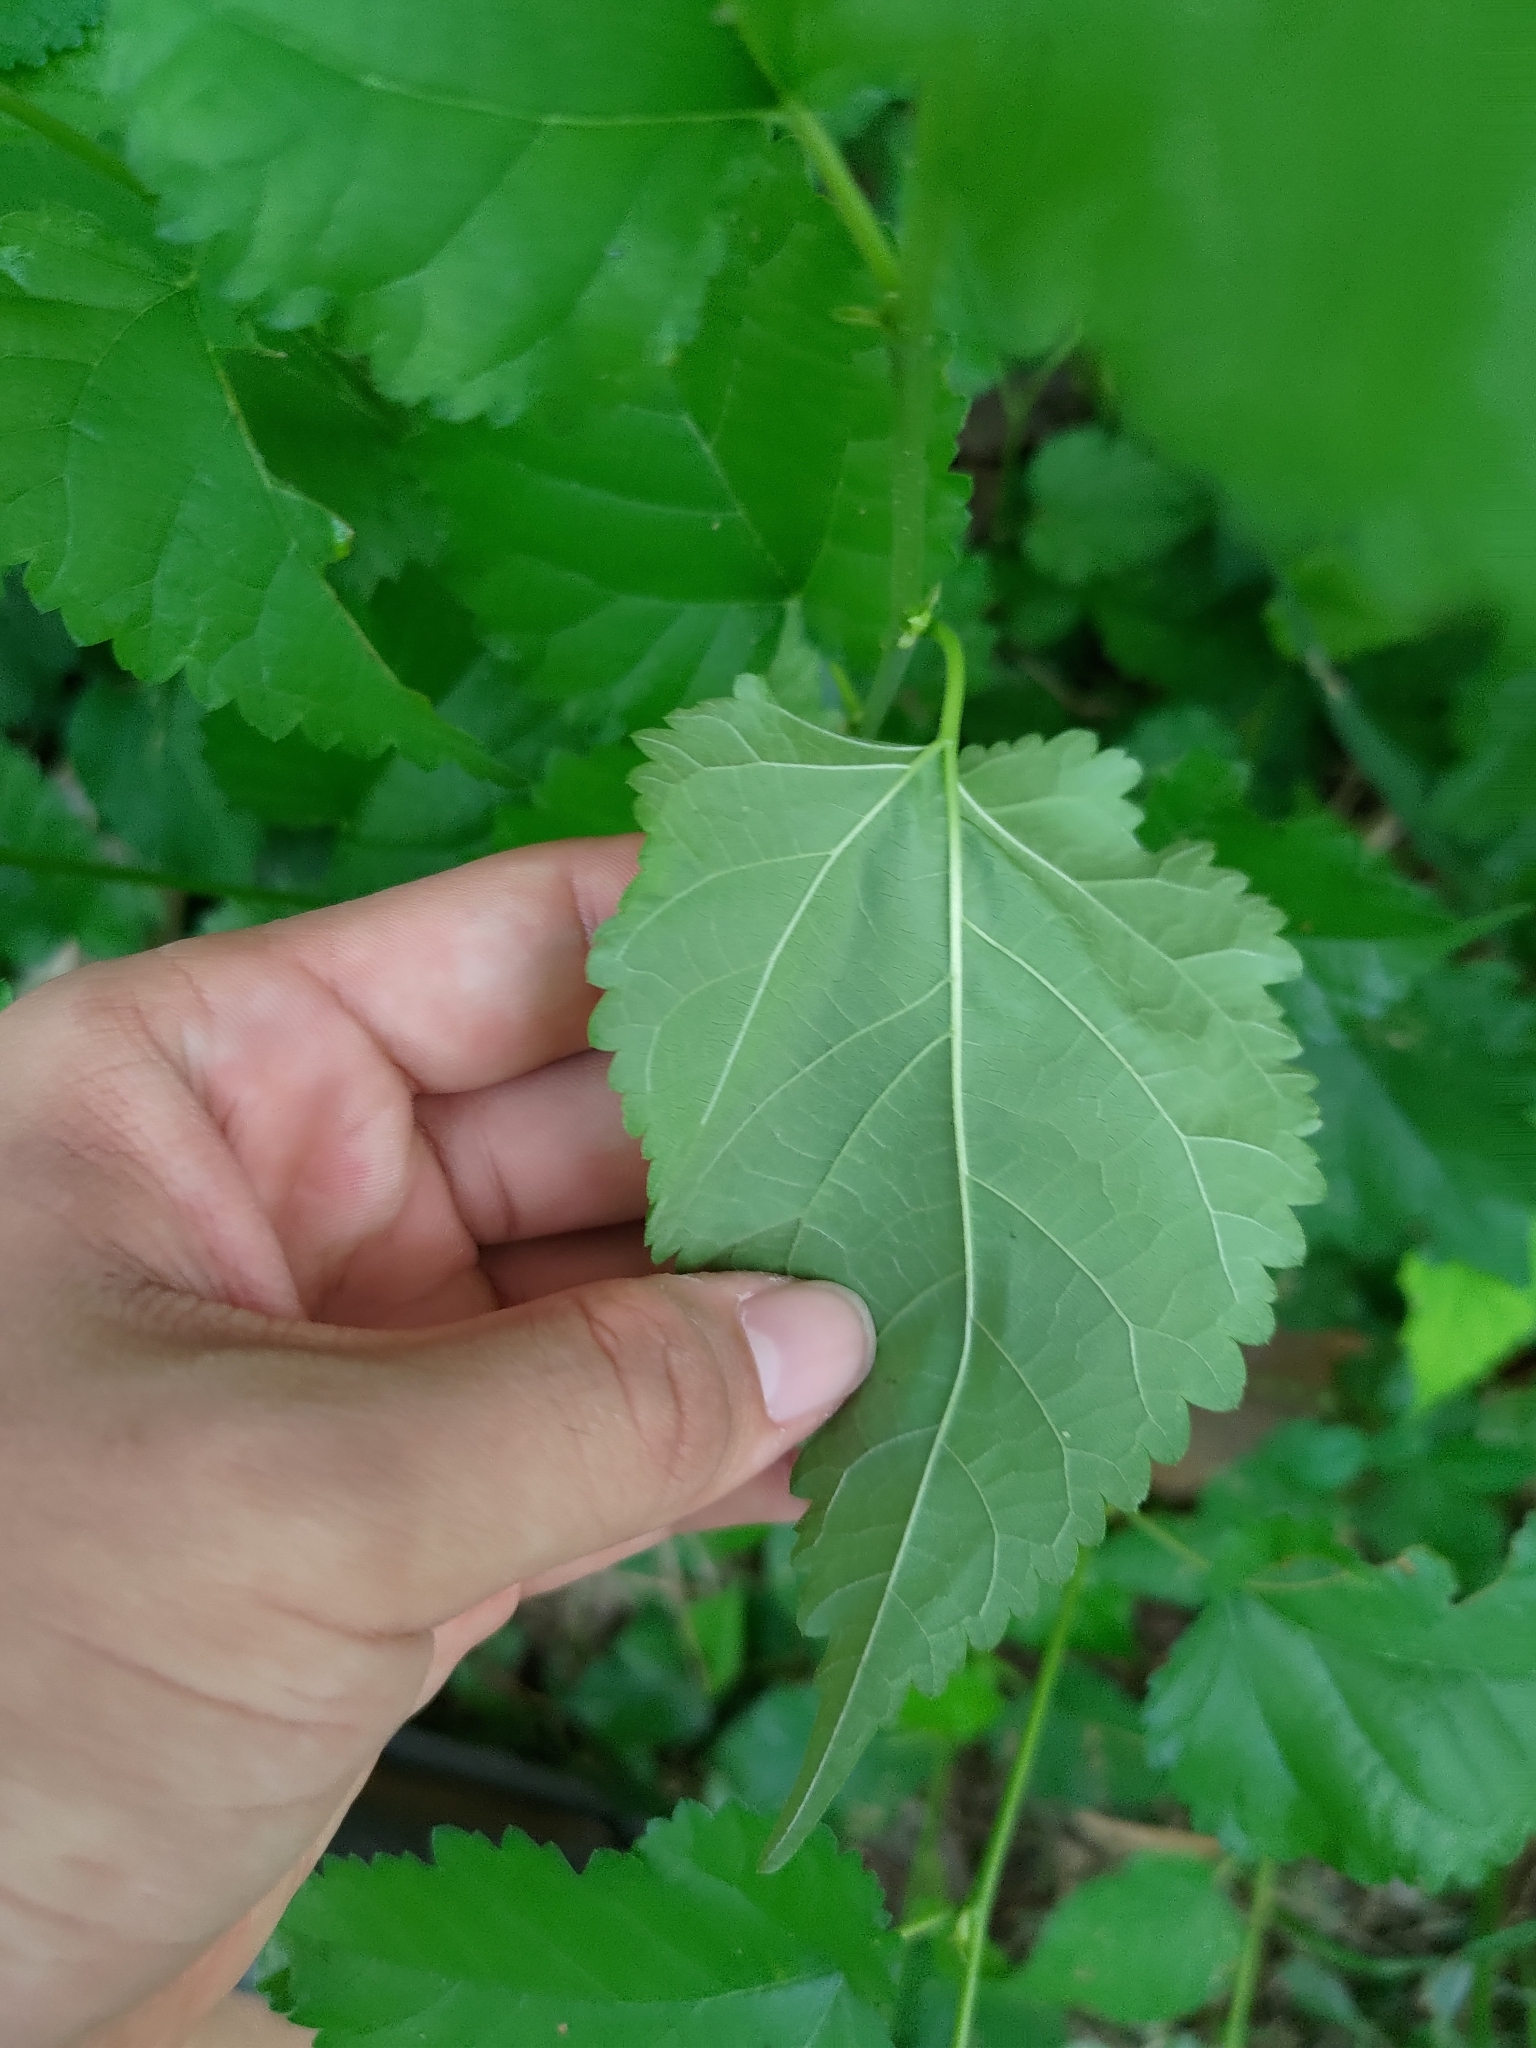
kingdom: Plantae
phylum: Tracheophyta
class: Magnoliopsida
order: Rosales
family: Moraceae
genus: Morus
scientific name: Morus alba
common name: White mulberry
